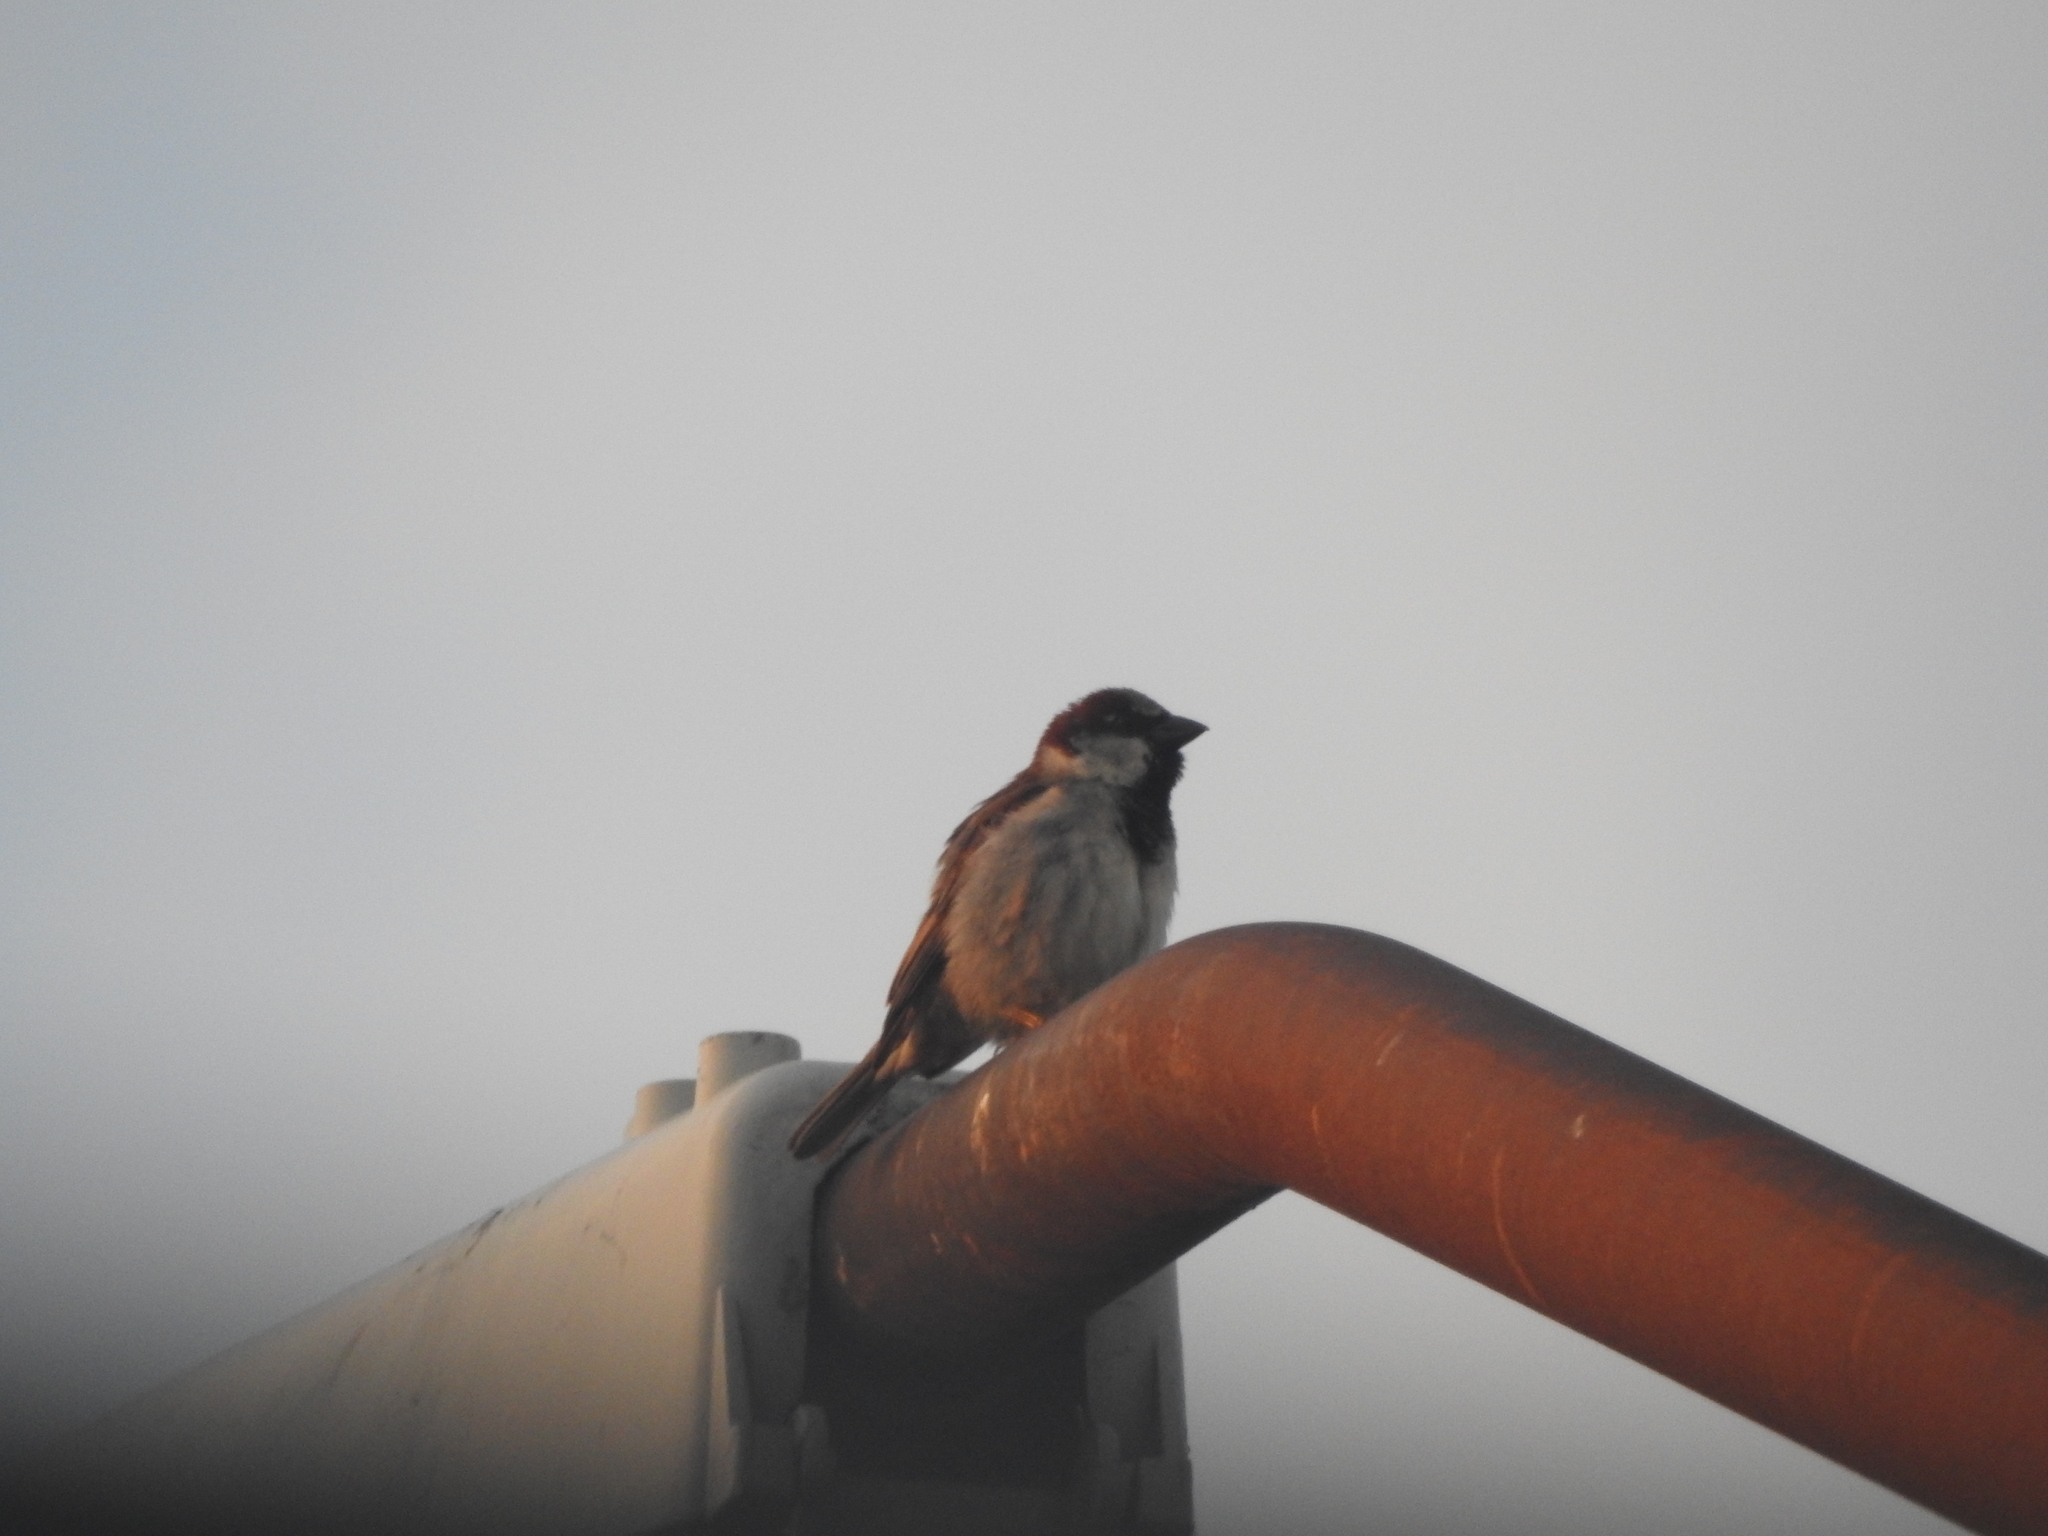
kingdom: Animalia
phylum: Chordata
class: Aves
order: Passeriformes
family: Passeridae
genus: Passer
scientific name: Passer domesticus
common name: House sparrow
